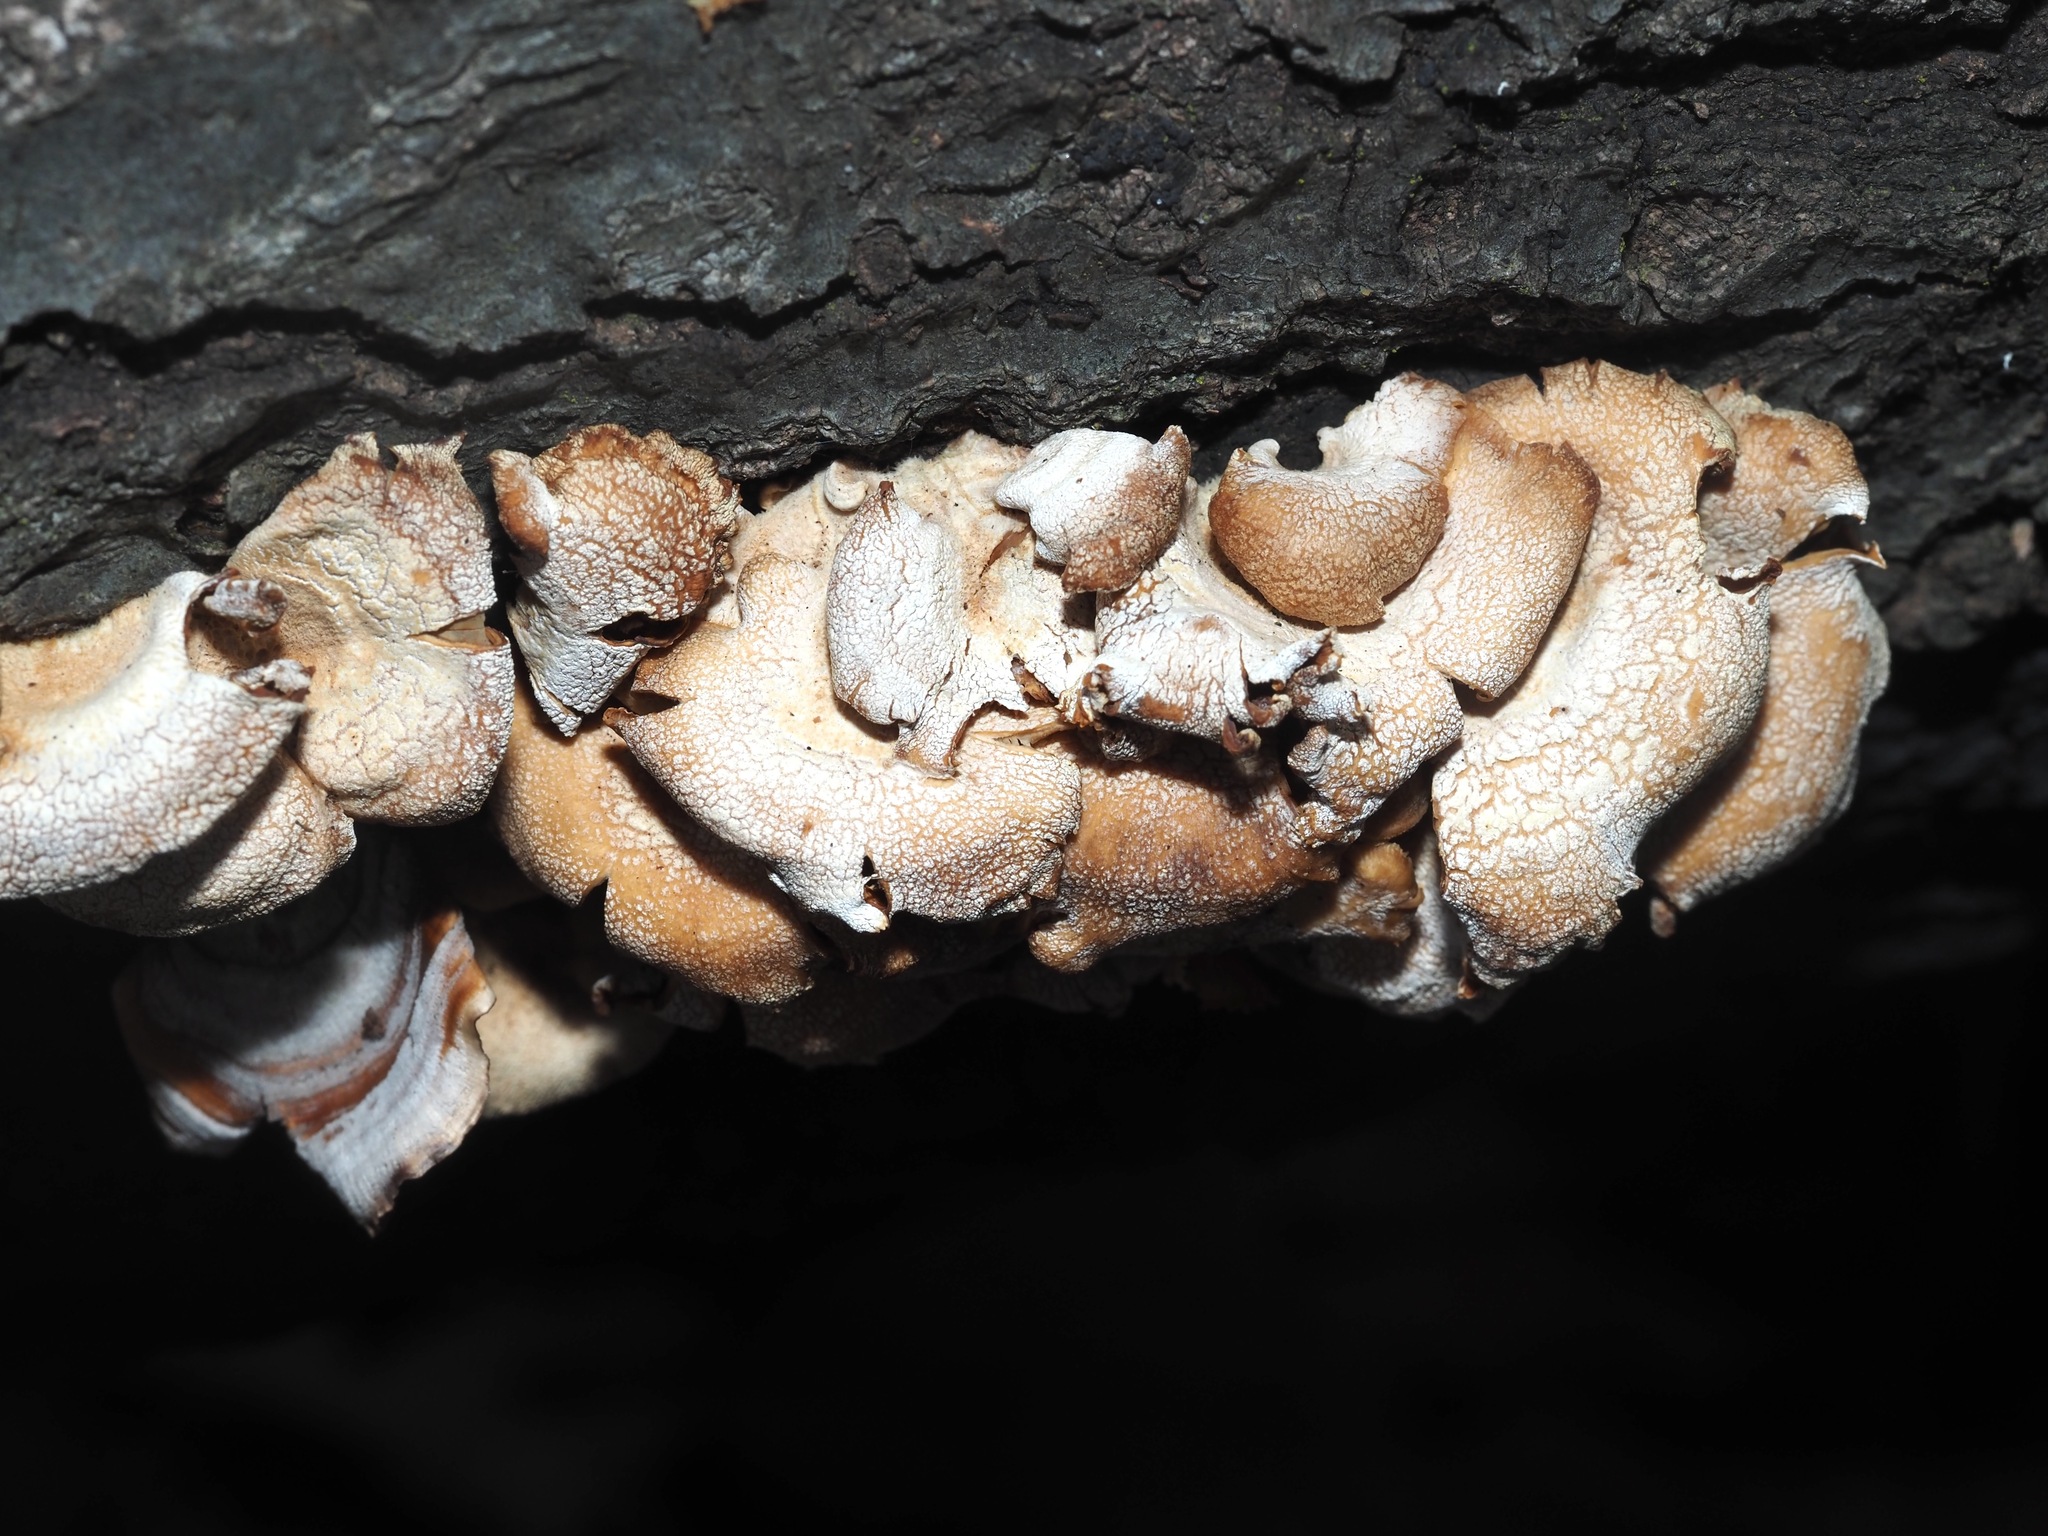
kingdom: Fungi
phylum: Basidiomycota
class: Agaricomycetes
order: Agaricales
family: Mycenaceae
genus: Panellus
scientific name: Panellus stipticus
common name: Bitter oysterling
